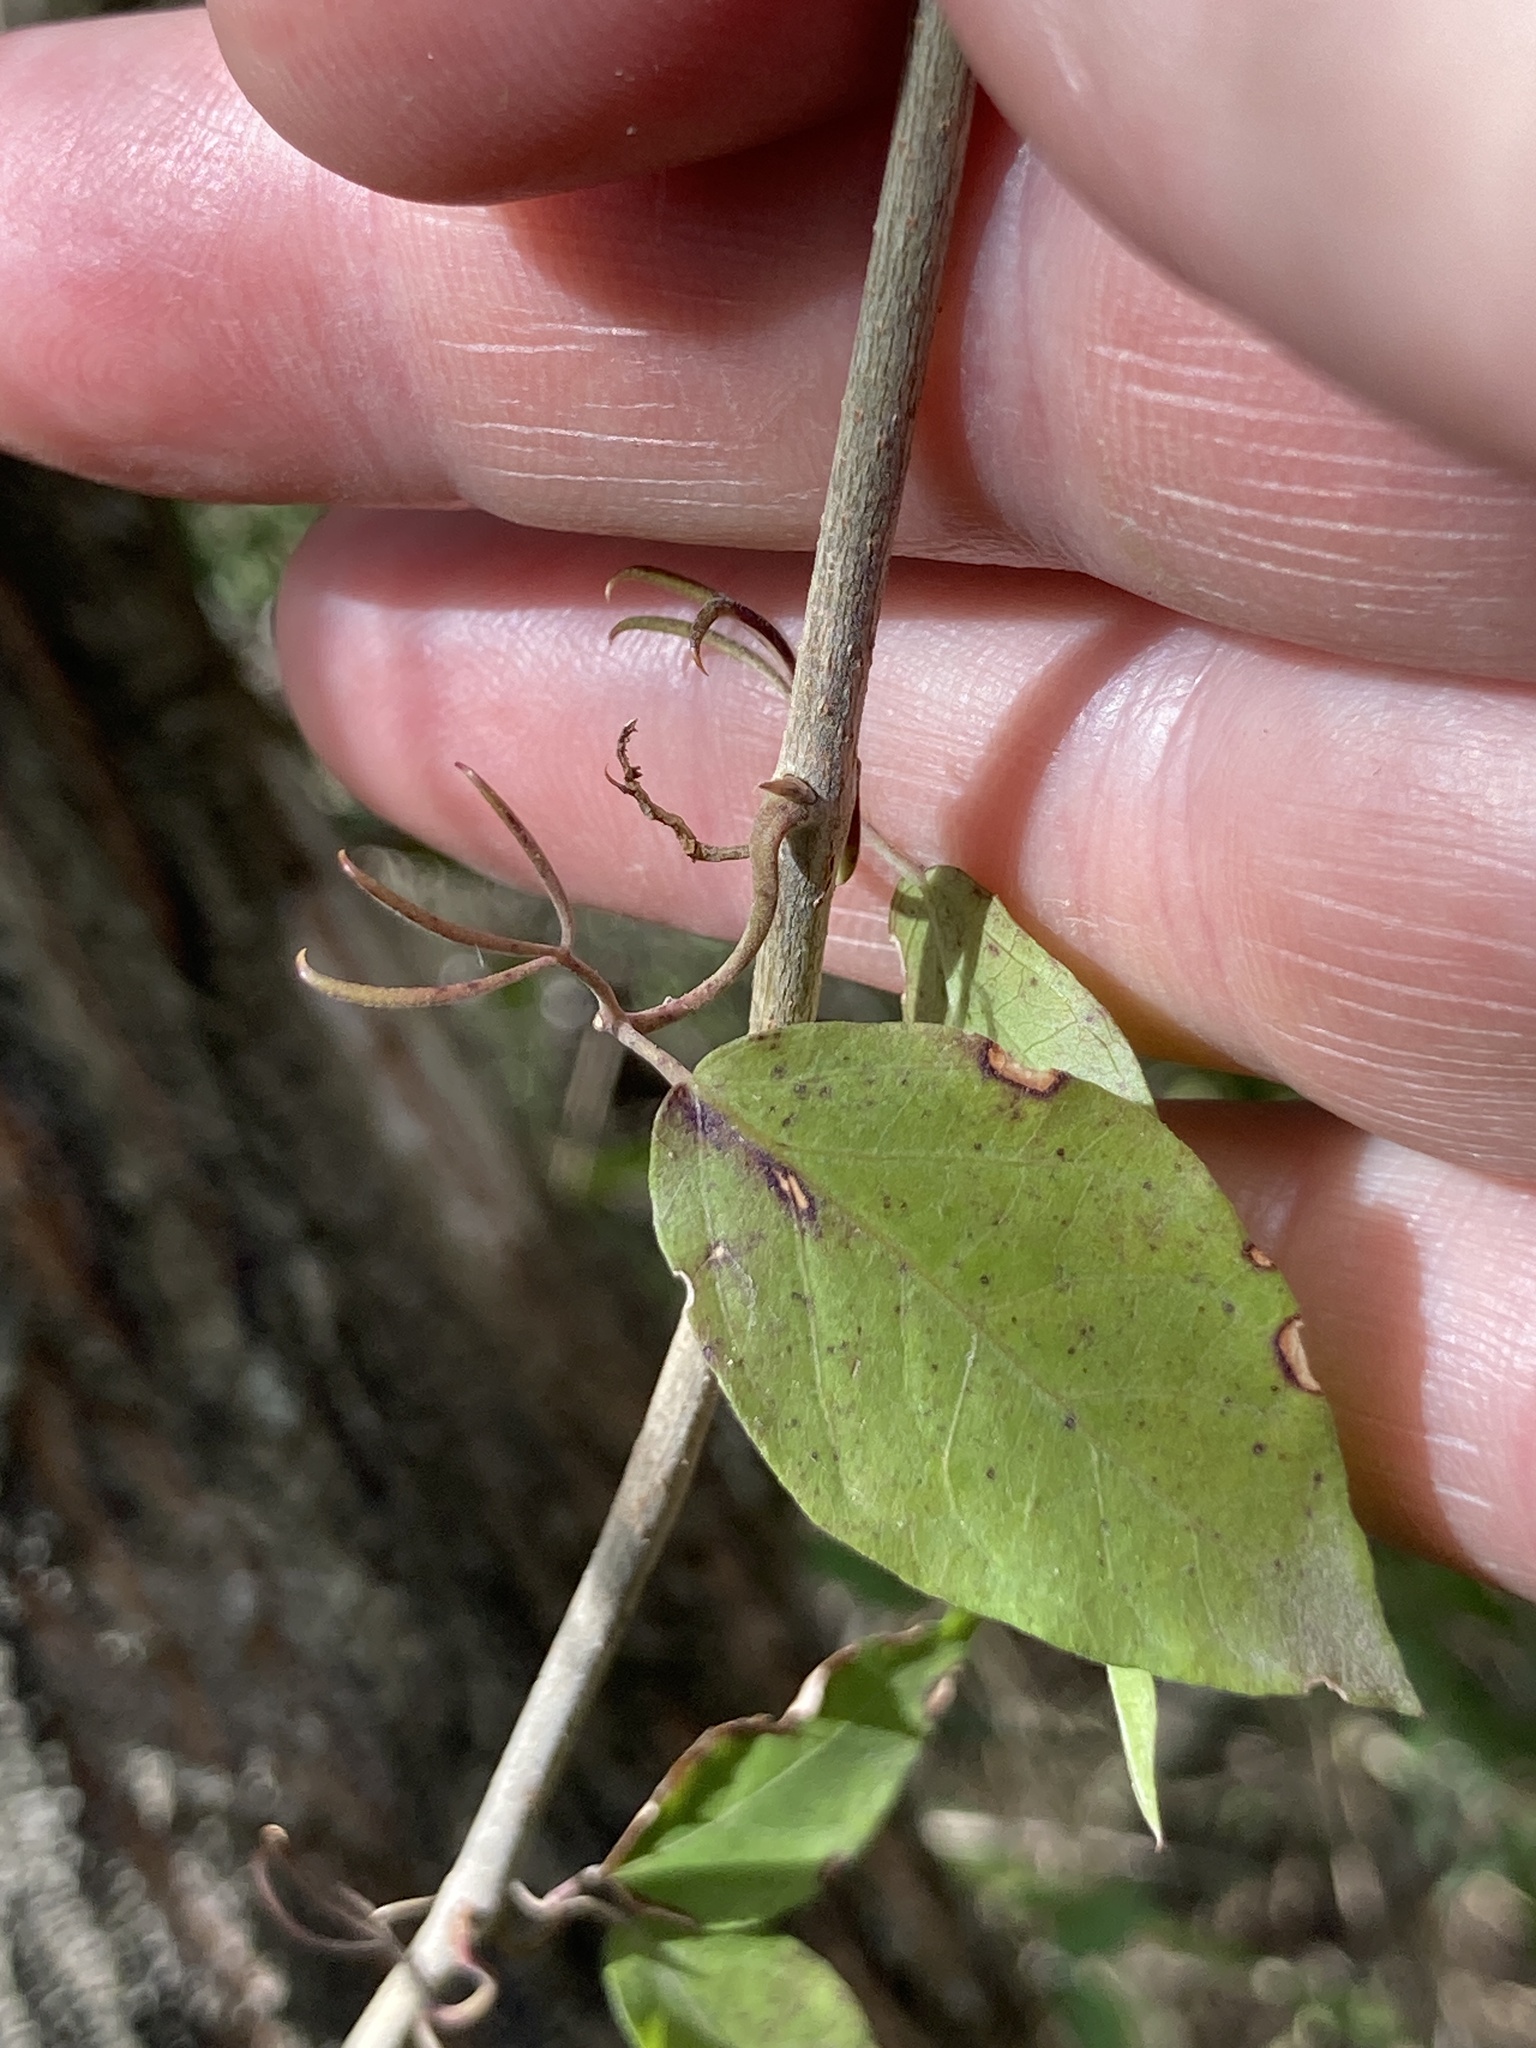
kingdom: Plantae
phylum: Tracheophyta
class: Magnoliopsida
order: Lamiales
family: Bignoniaceae
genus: Dolichandra
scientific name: Dolichandra unguis-cati
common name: Catclaw vine
